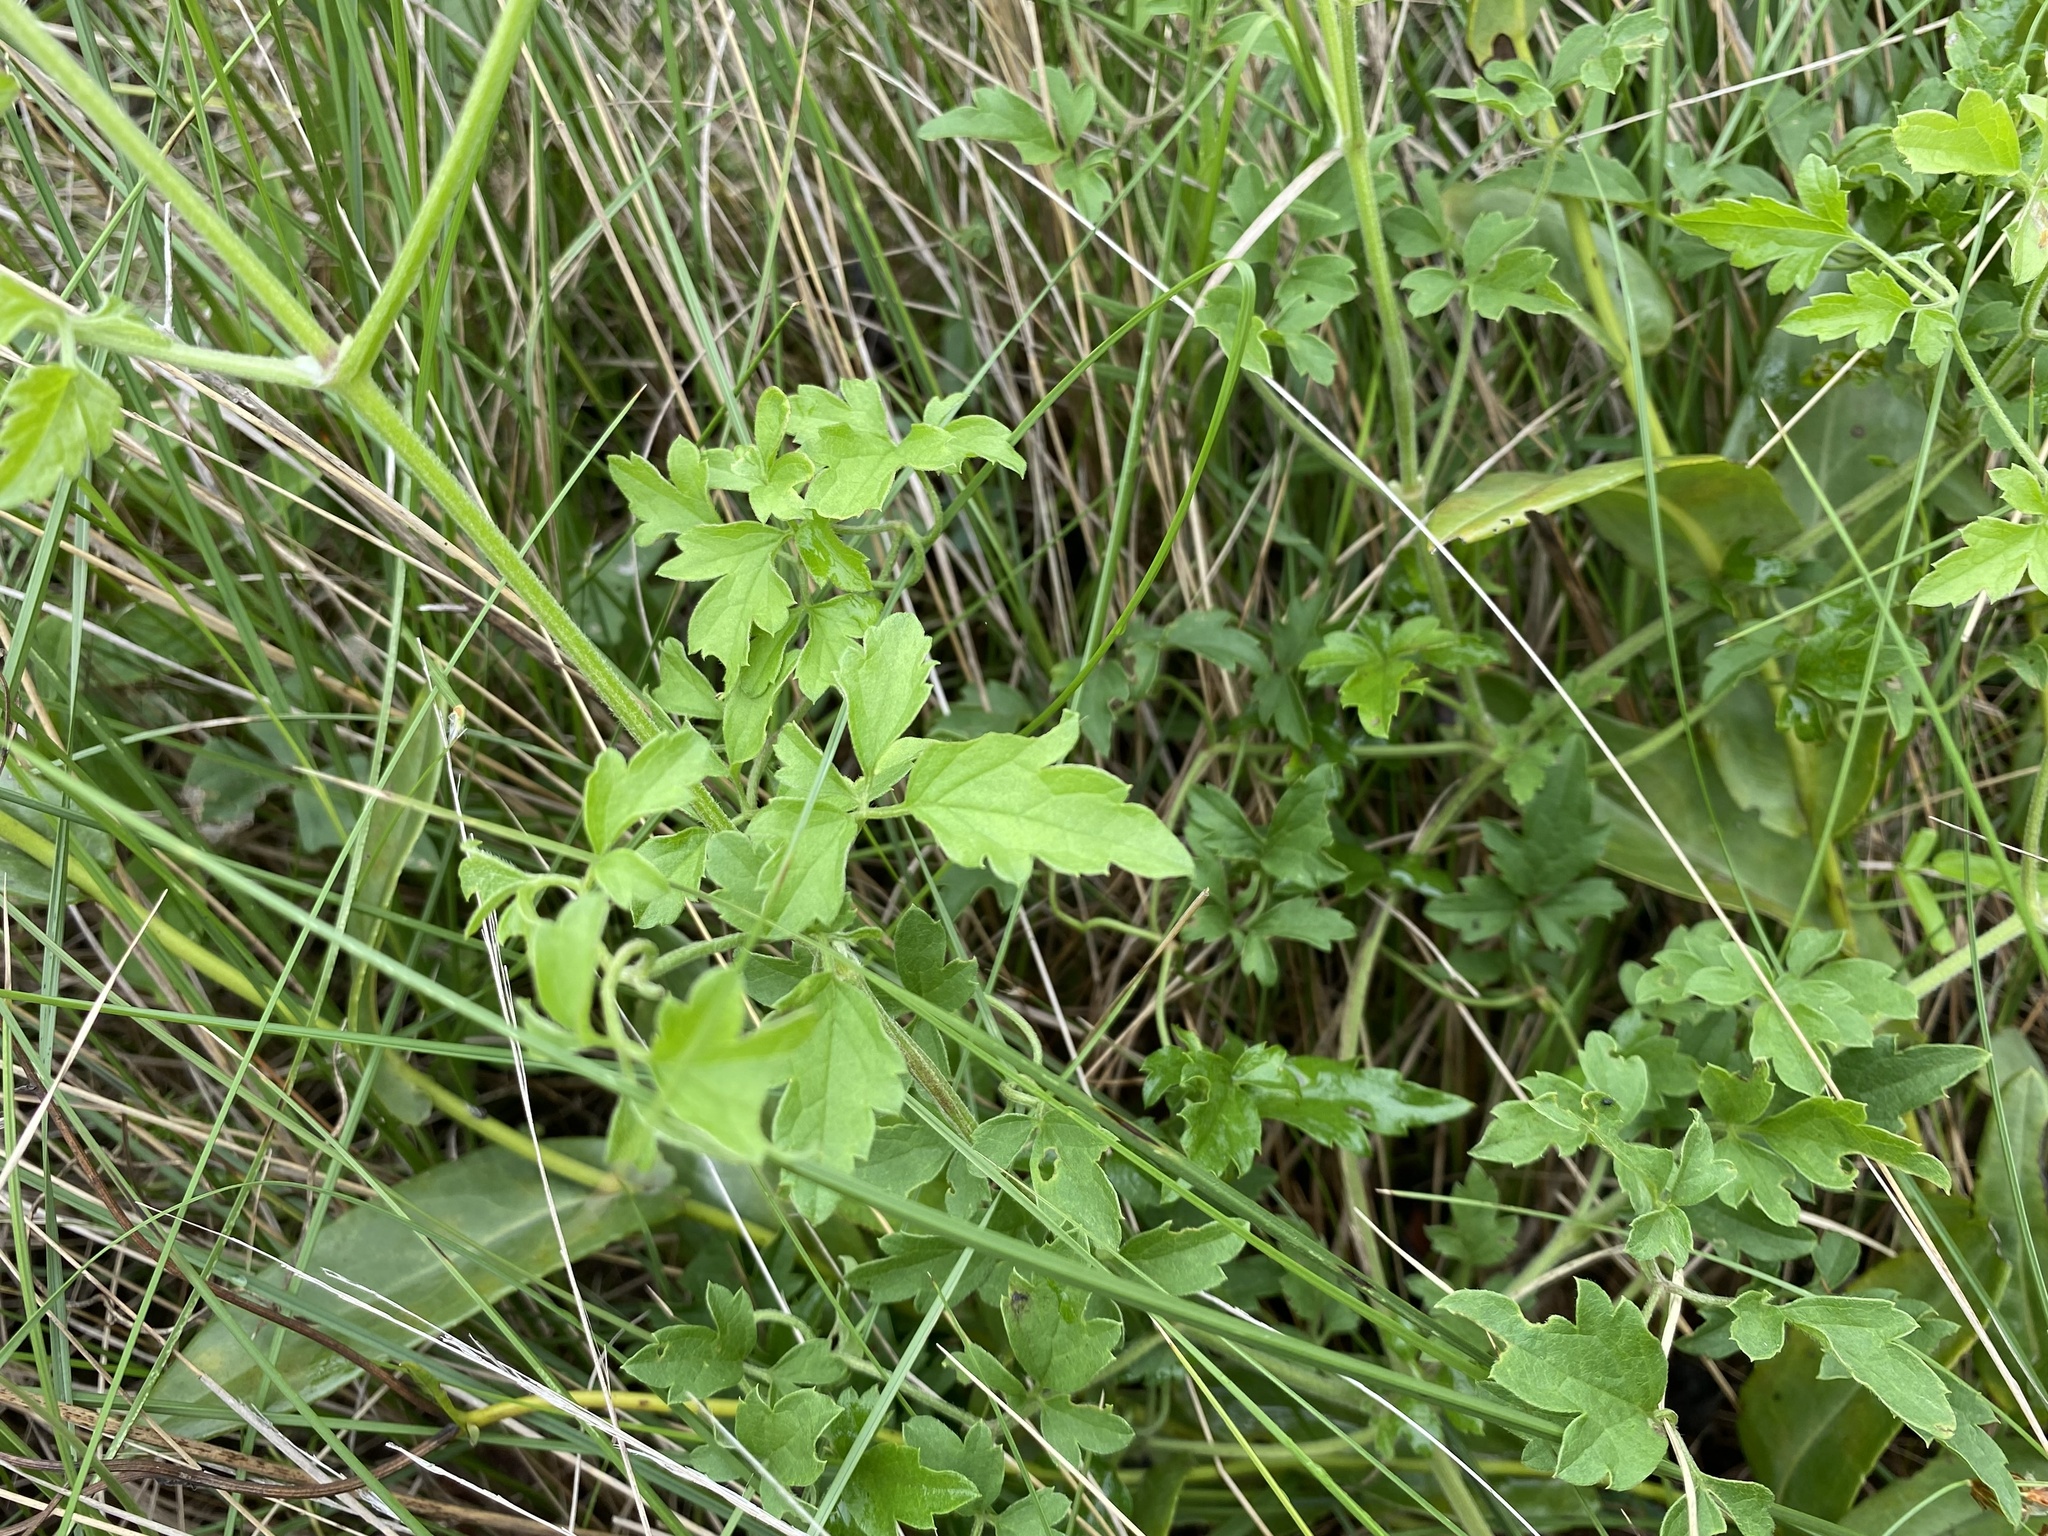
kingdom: Plantae
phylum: Tracheophyta
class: Magnoliopsida
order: Ranunculales
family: Ranunculaceae
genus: Clematis
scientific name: Clematis brachiata
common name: Traveler's-joy
